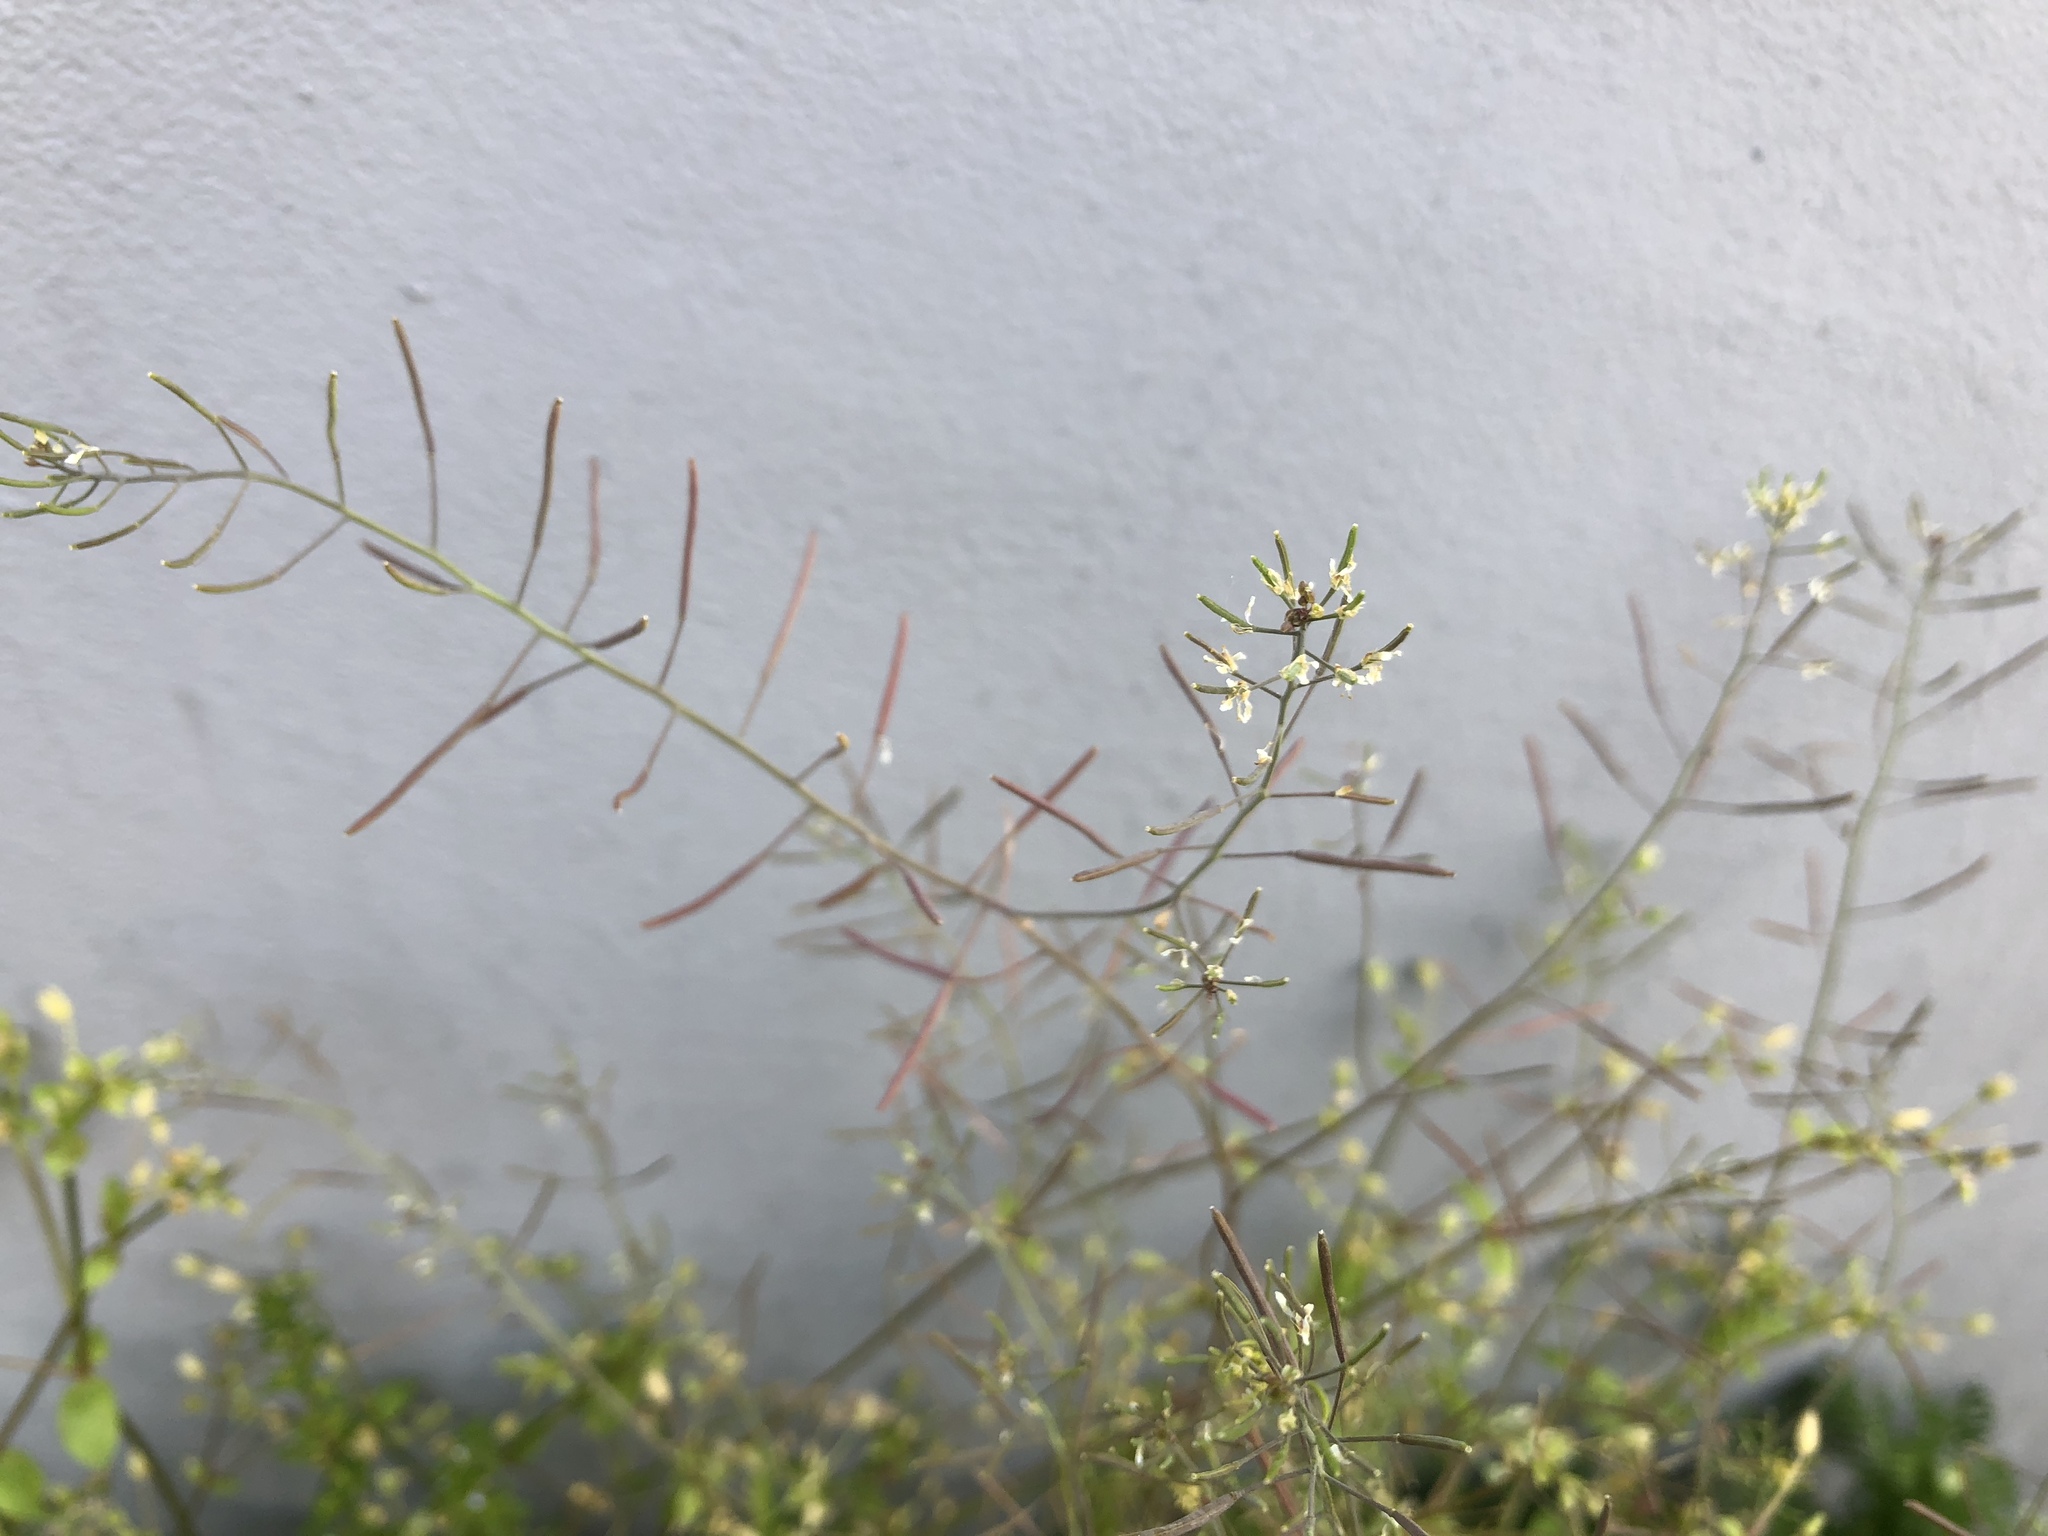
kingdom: Plantae
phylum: Tracheophyta
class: Magnoliopsida
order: Brassicales
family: Brassicaceae
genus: Arabidopsis
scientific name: Arabidopsis thaliana
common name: Thale cress
